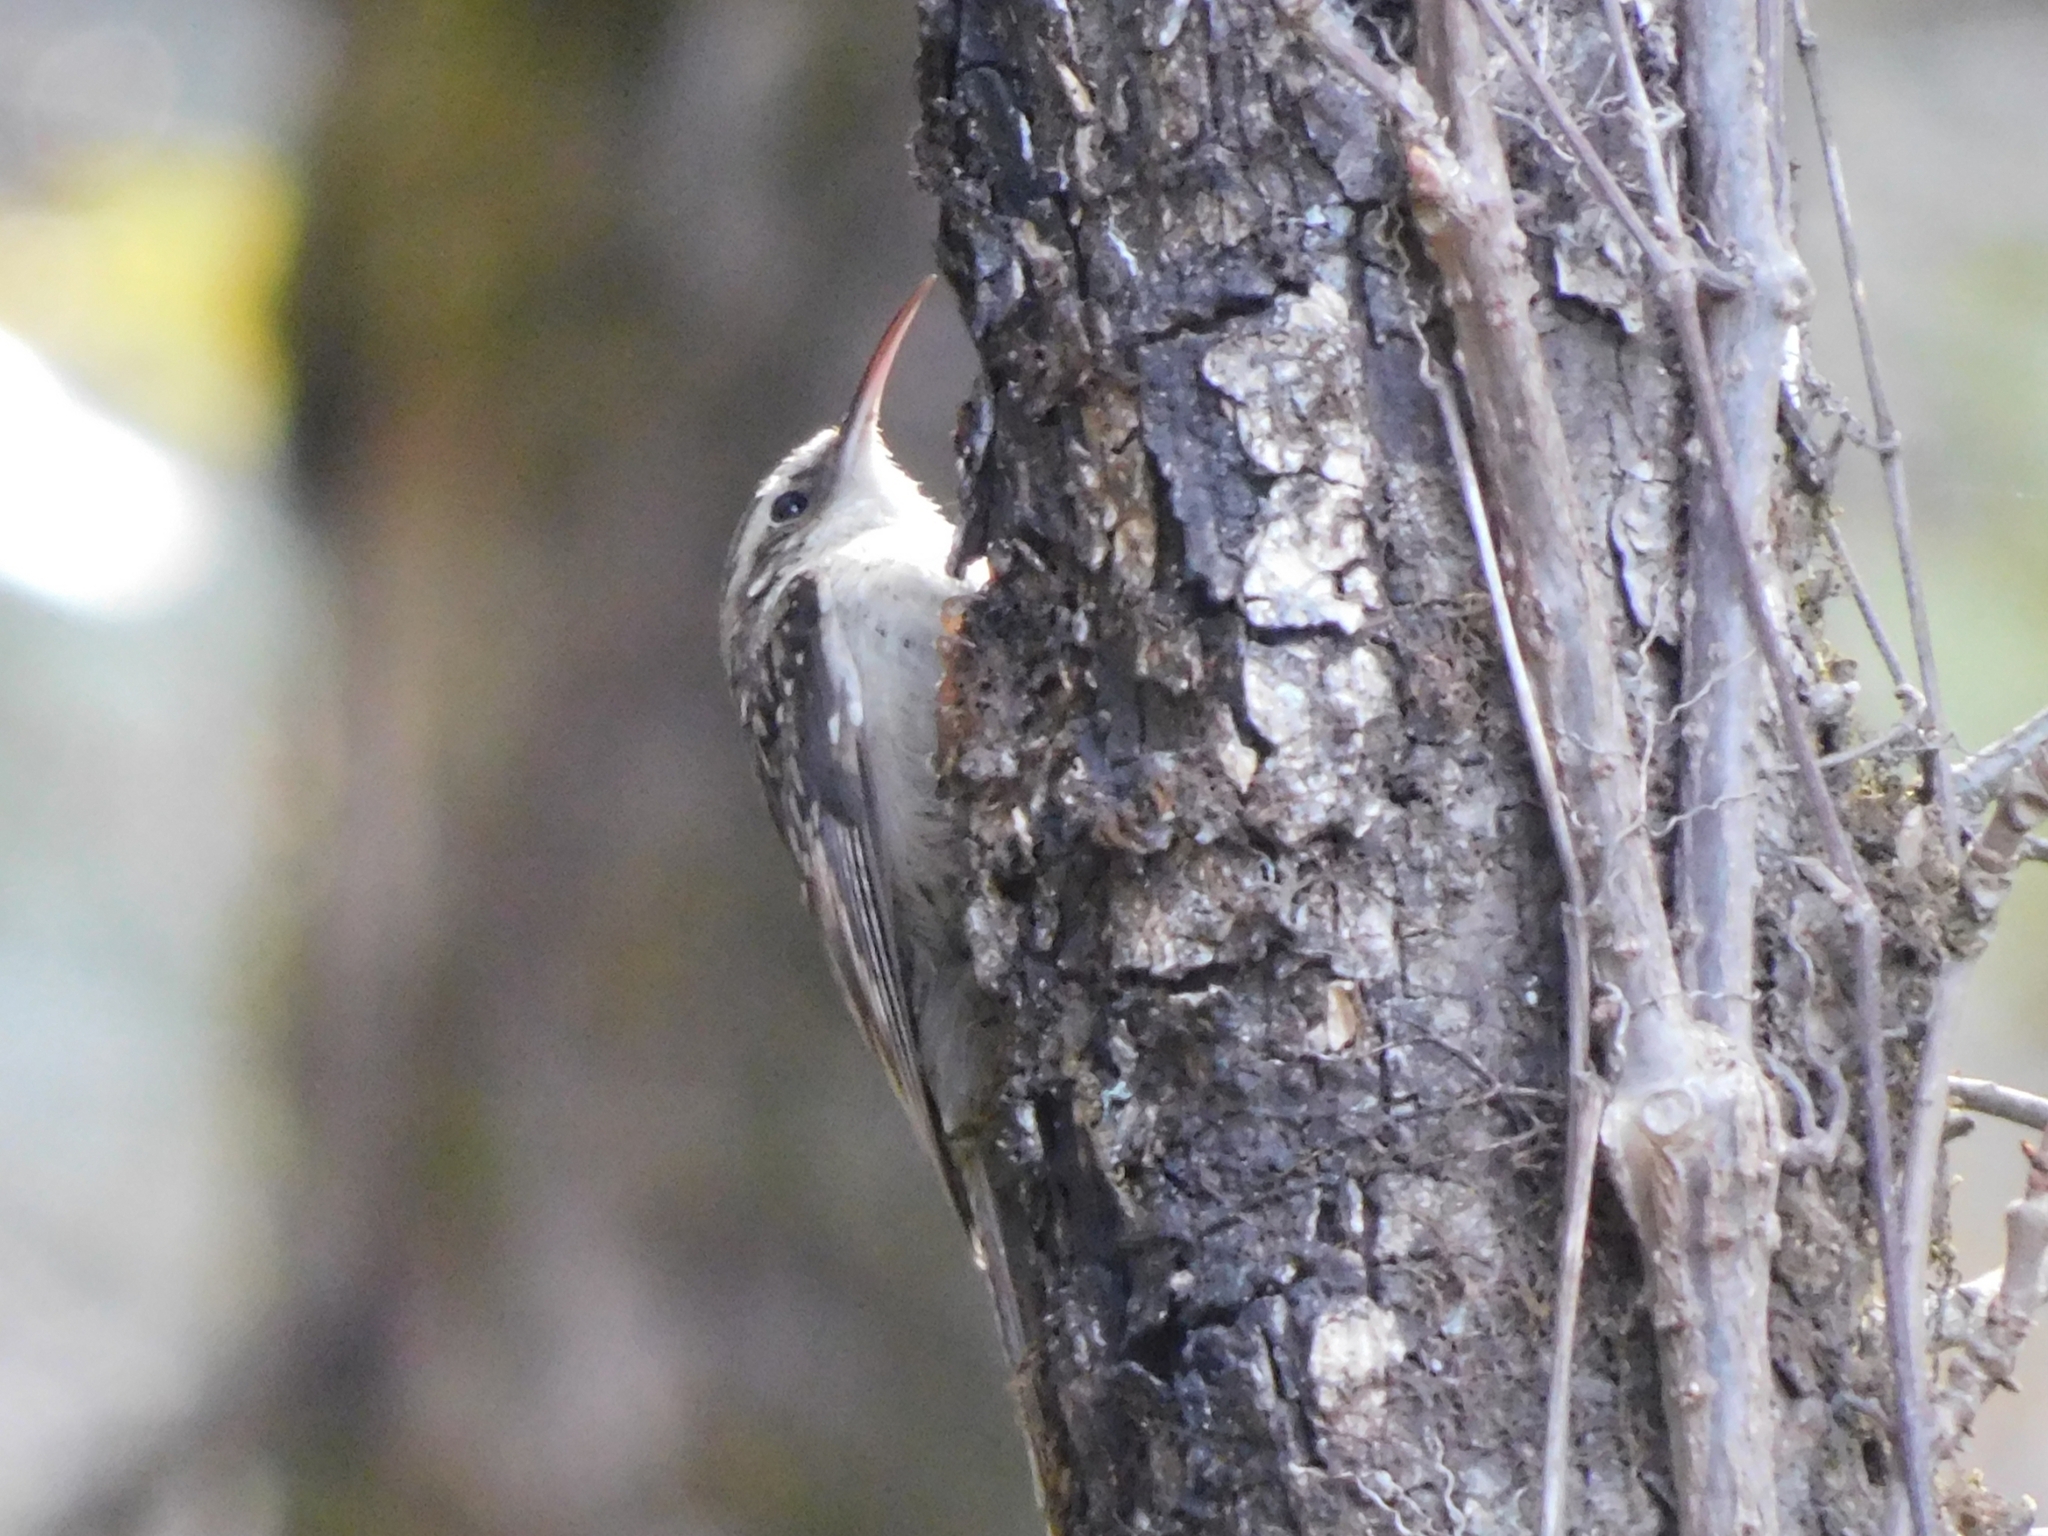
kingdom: Animalia
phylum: Chordata
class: Aves
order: Passeriformes
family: Certhiidae
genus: Certhia
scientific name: Certhia himalayana
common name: Bar-tailed treecreeper
